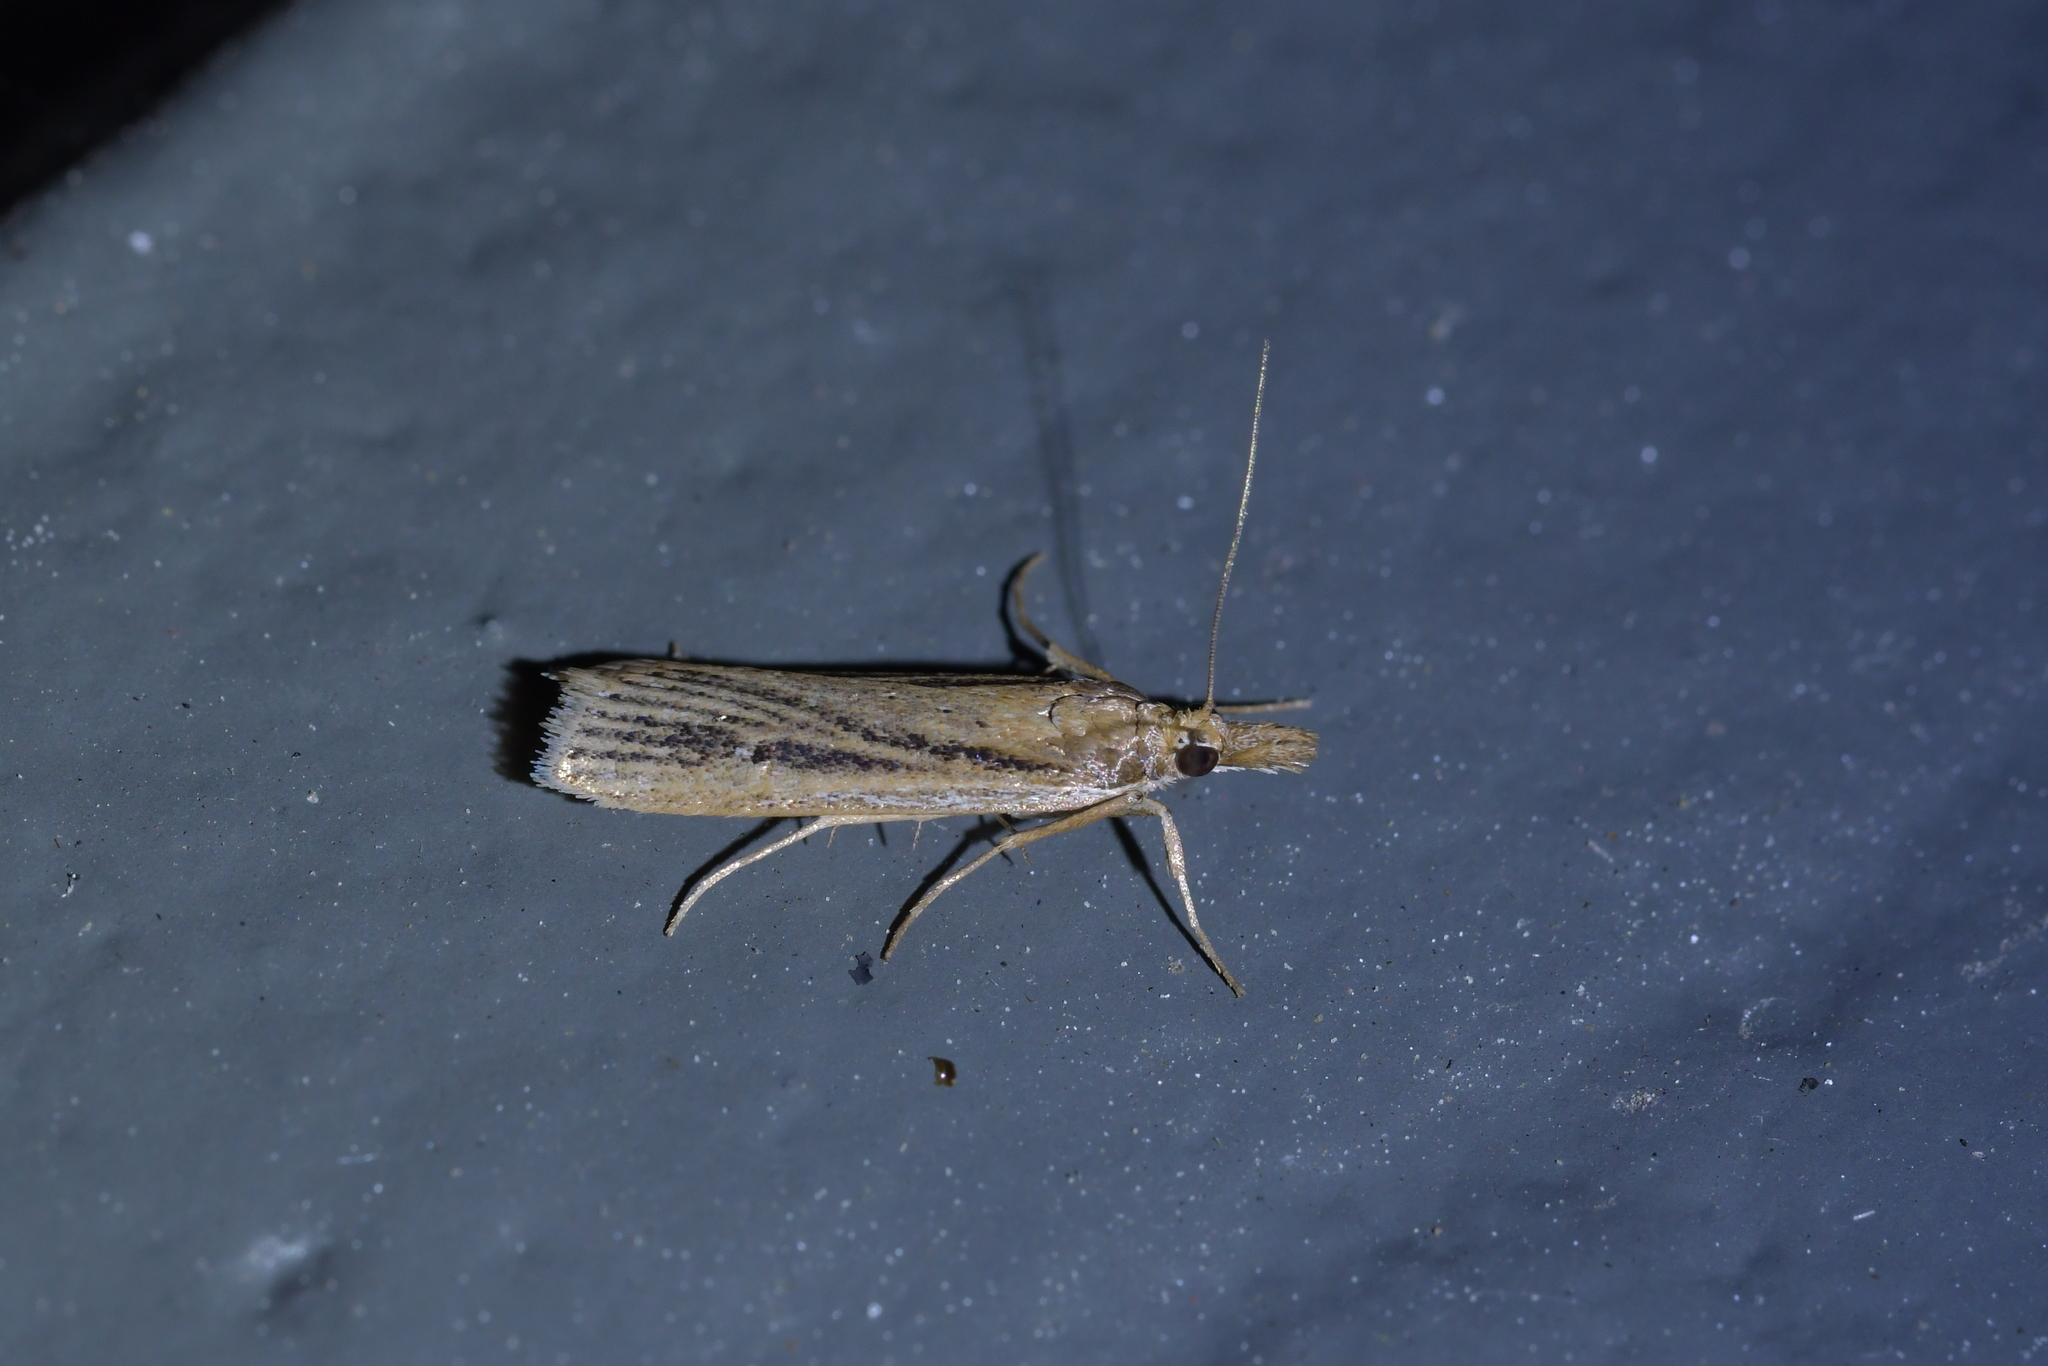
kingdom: Animalia
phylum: Arthropoda
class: Insecta
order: Lepidoptera
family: Crambidae
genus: Eudonia
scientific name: Eudonia sabulosella
